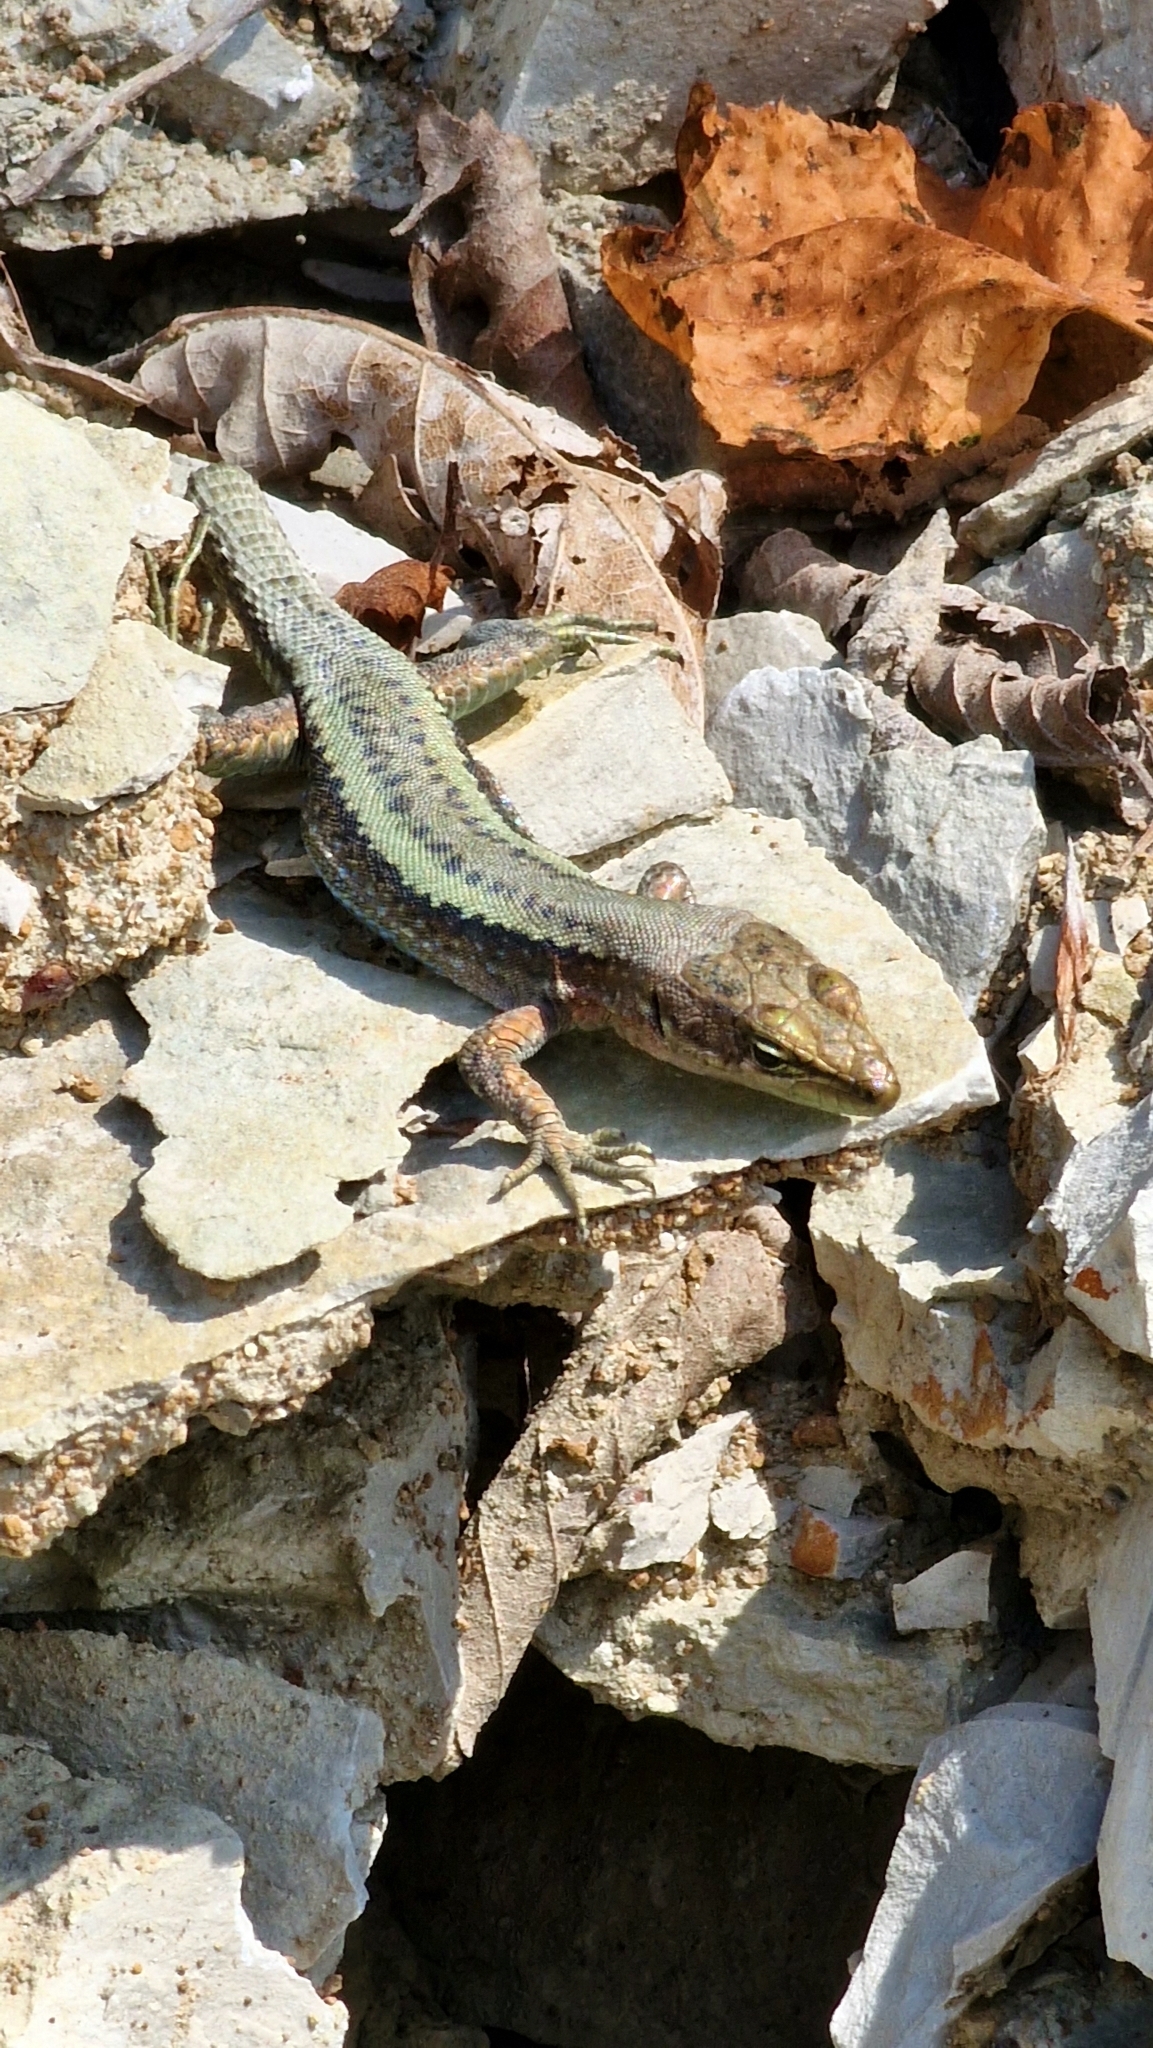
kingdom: Animalia
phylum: Chordata
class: Squamata
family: Lacertidae
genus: Darevskia
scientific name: Darevskia daghestanica
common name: Dagestan lizard
